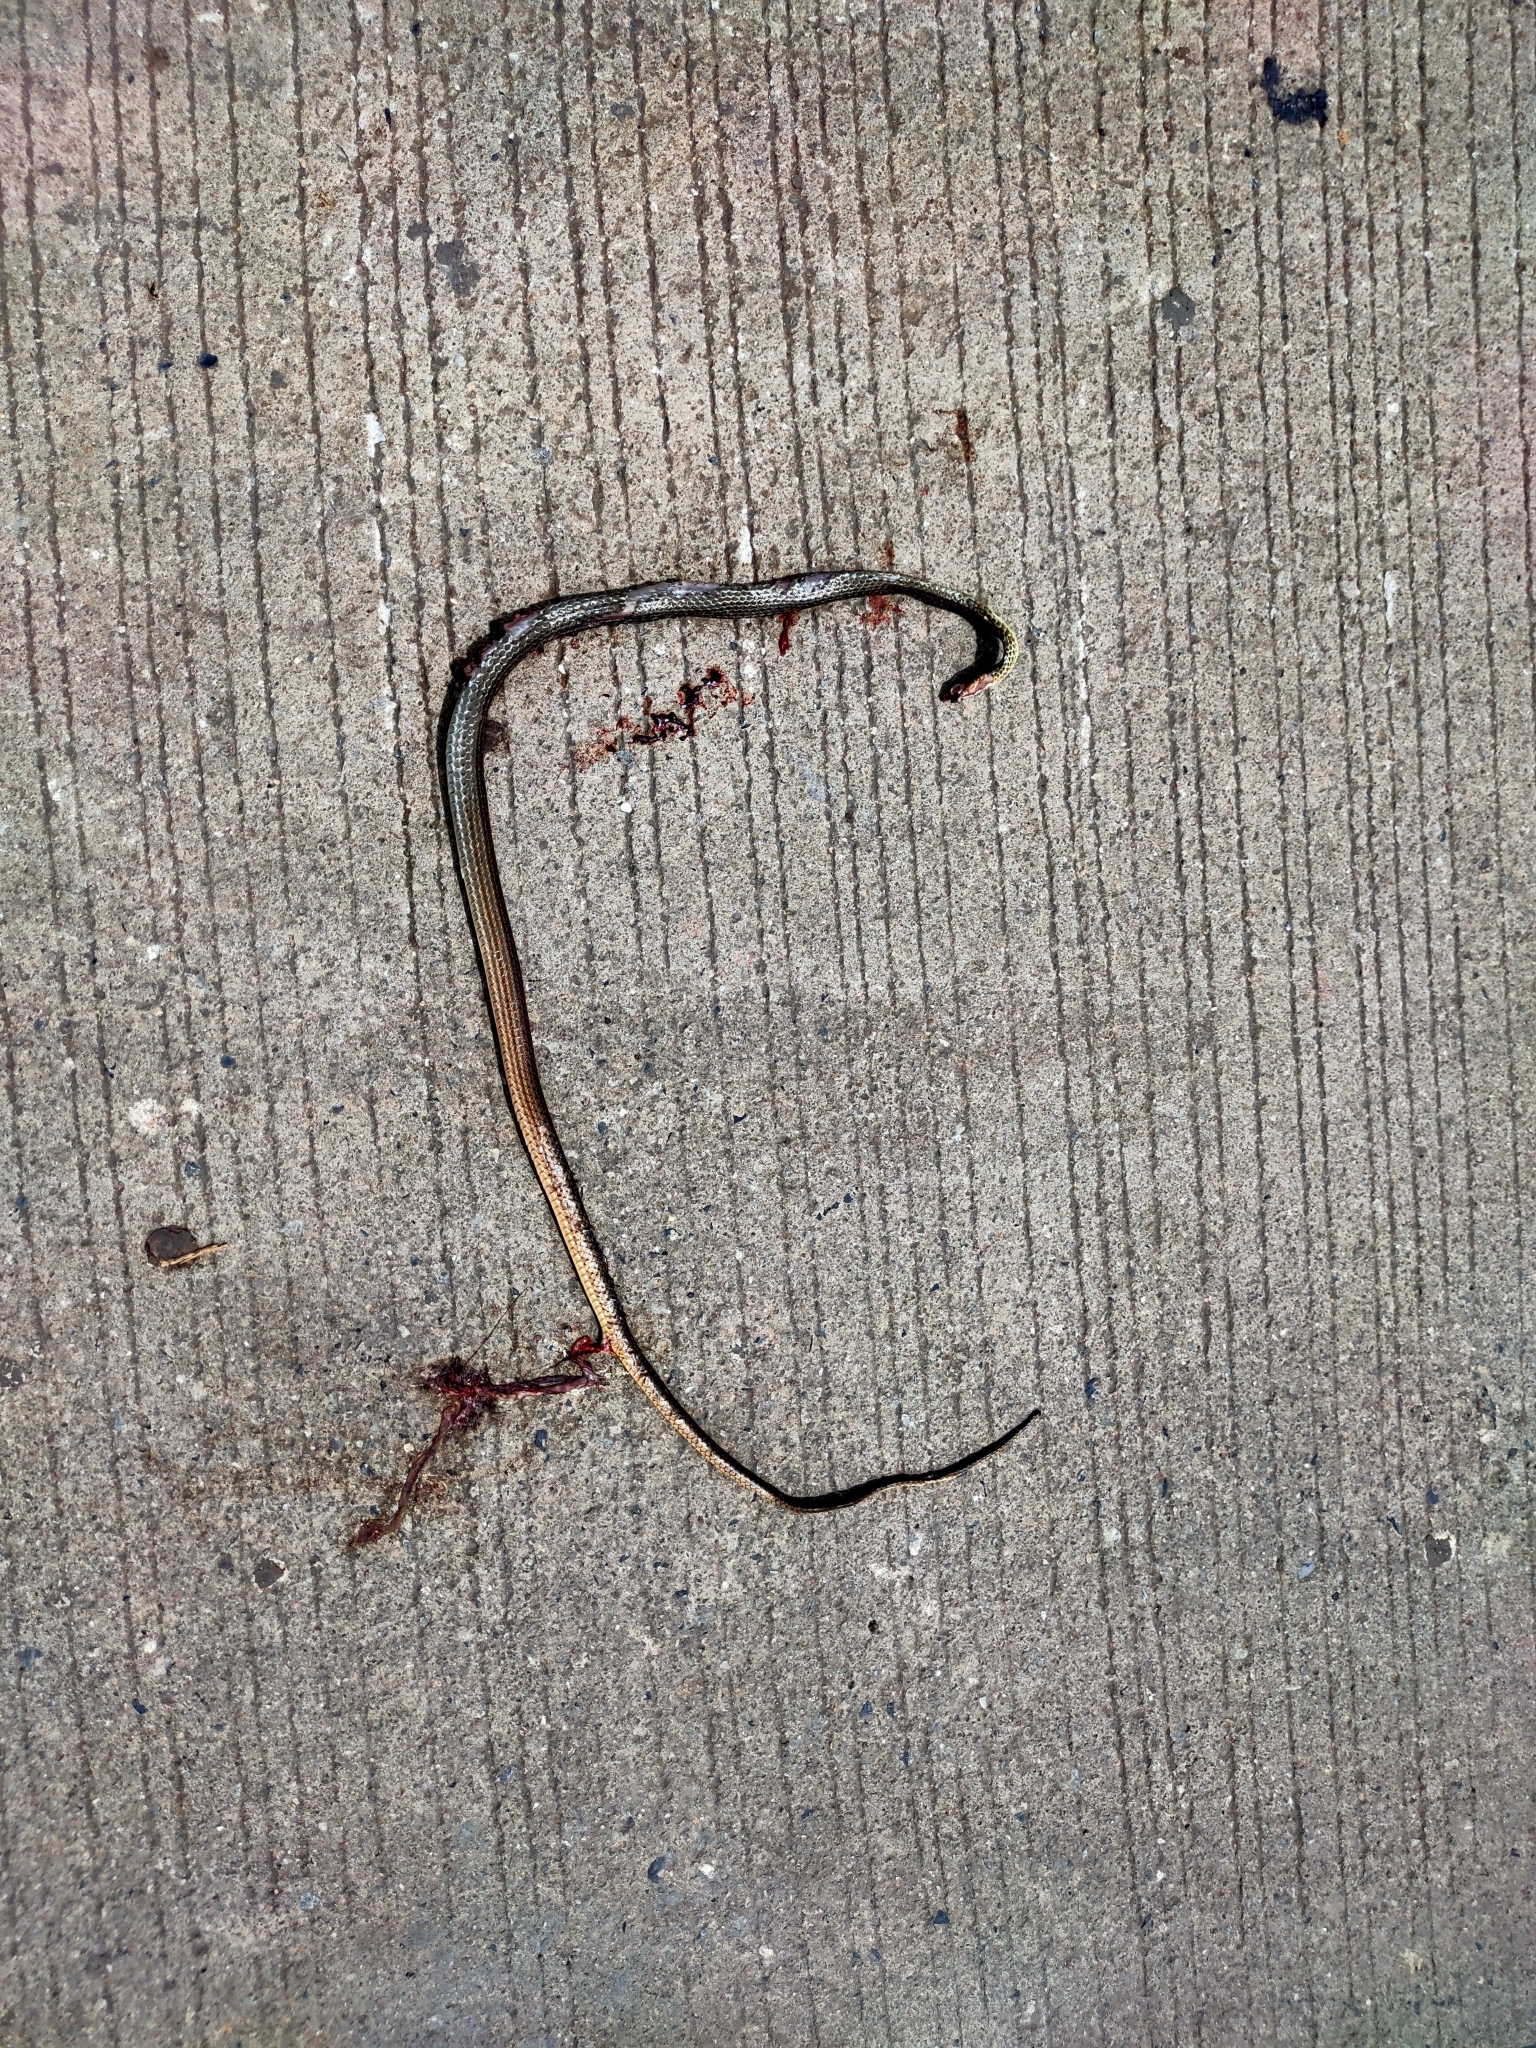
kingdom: Animalia
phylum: Chordata
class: Squamata
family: Colubridae
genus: Ptyas
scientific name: Ptyas korros
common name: Indo-chinese rat snake
